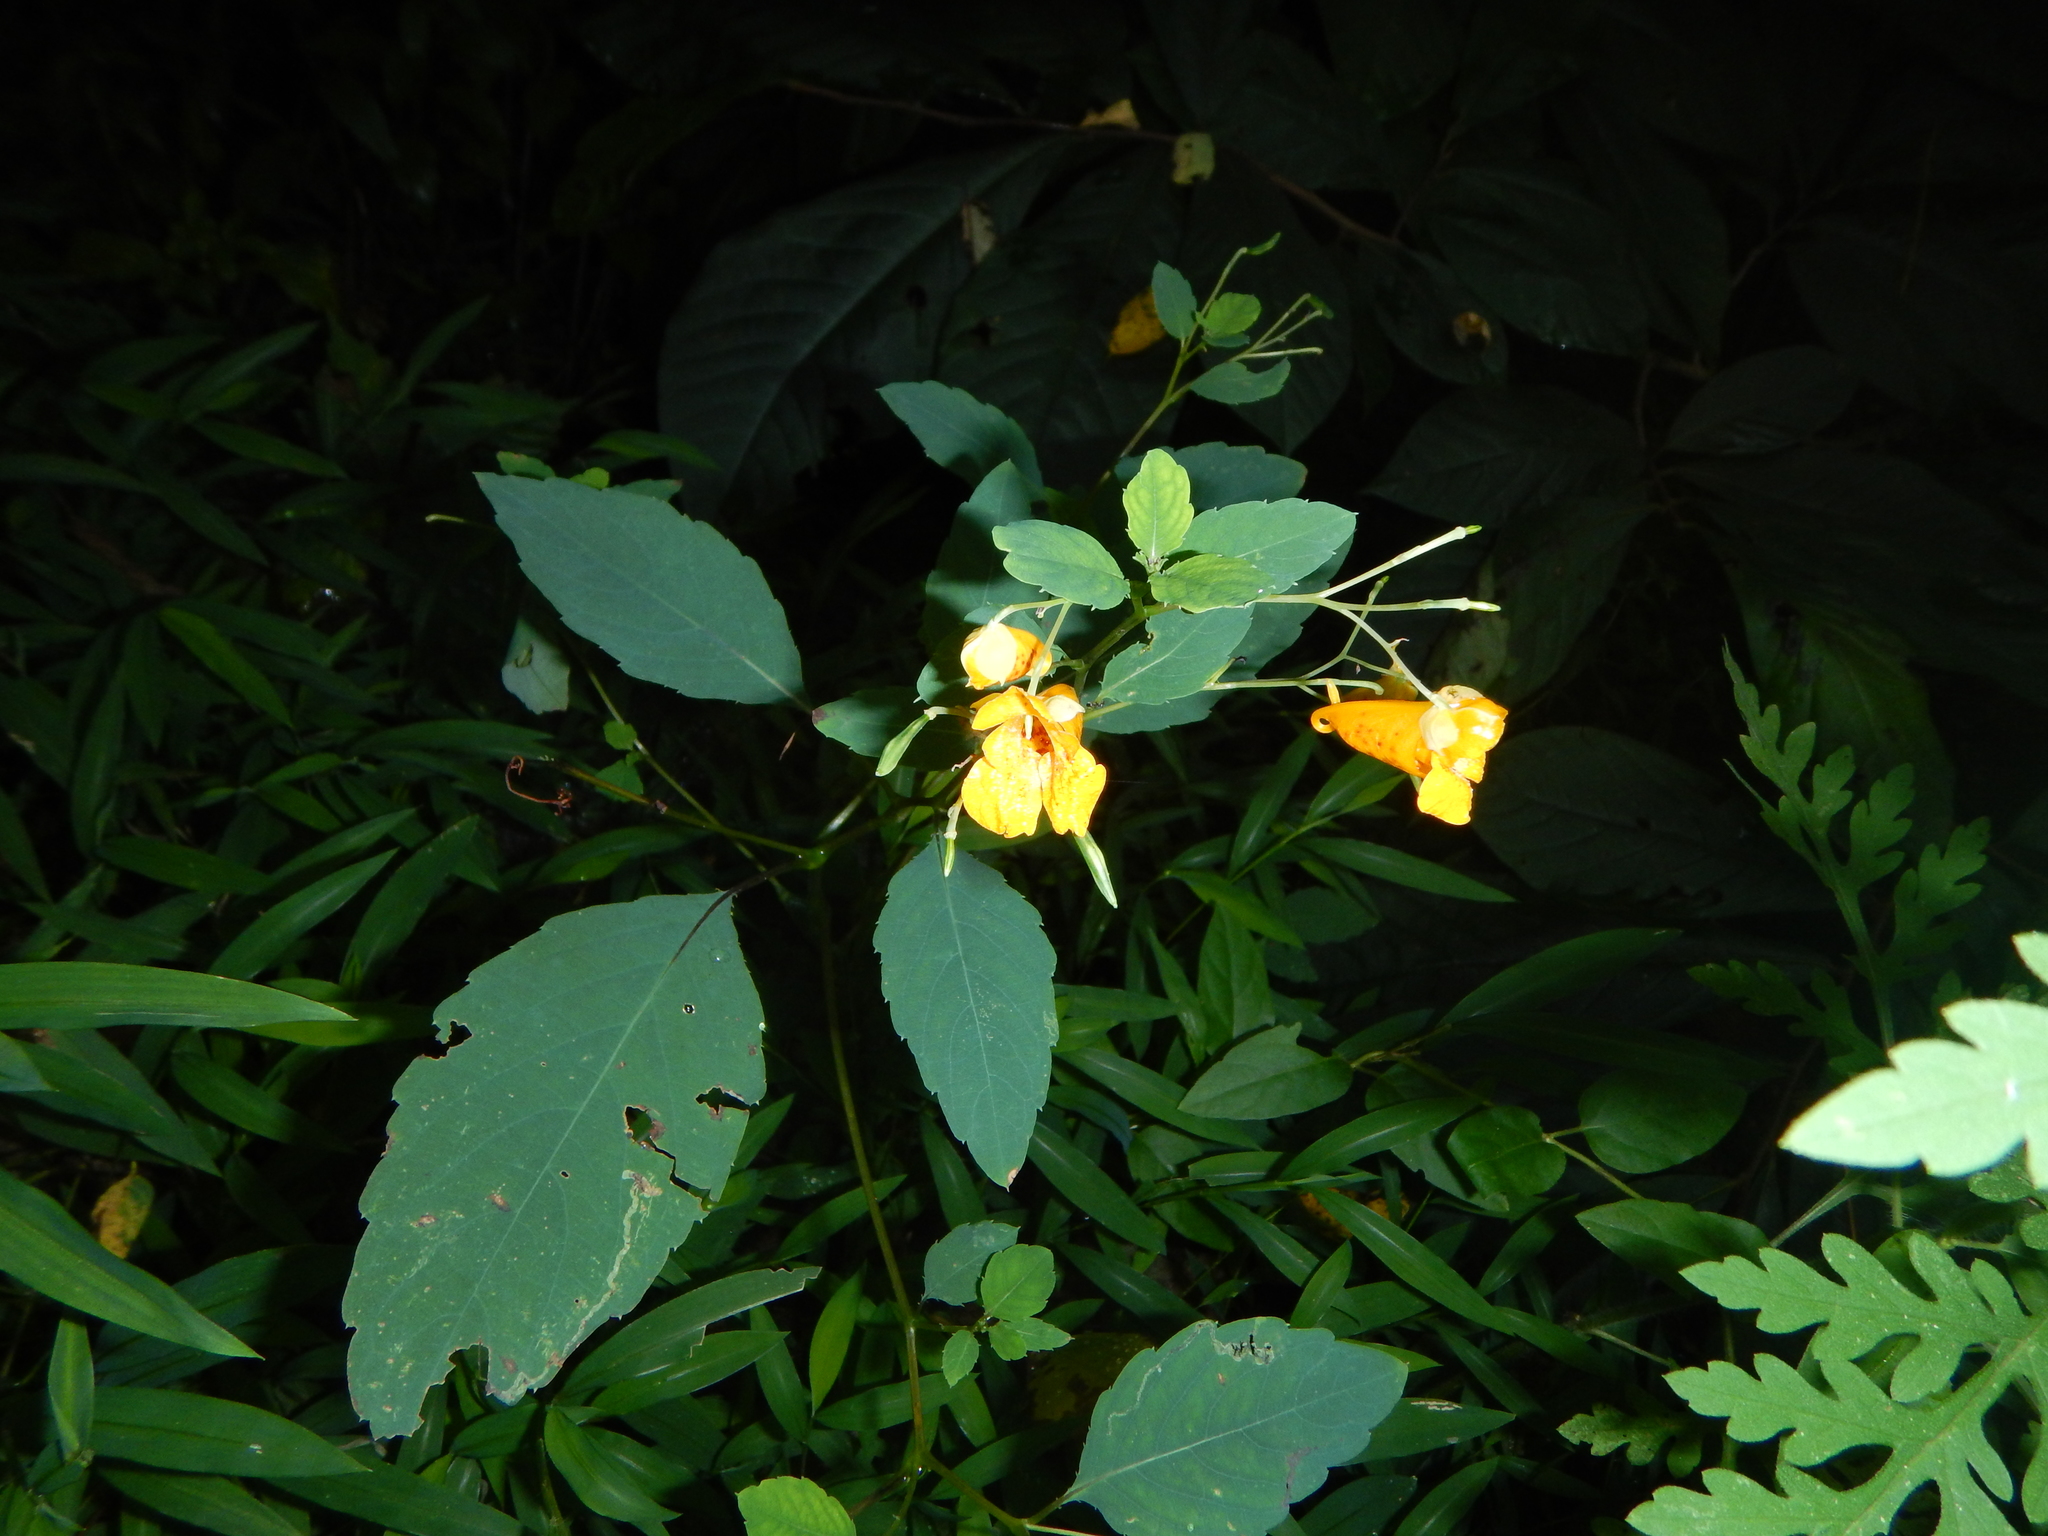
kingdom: Plantae
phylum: Tracheophyta
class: Magnoliopsida
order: Ericales
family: Balsaminaceae
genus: Impatiens
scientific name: Impatiens capensis
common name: Orange balsam
